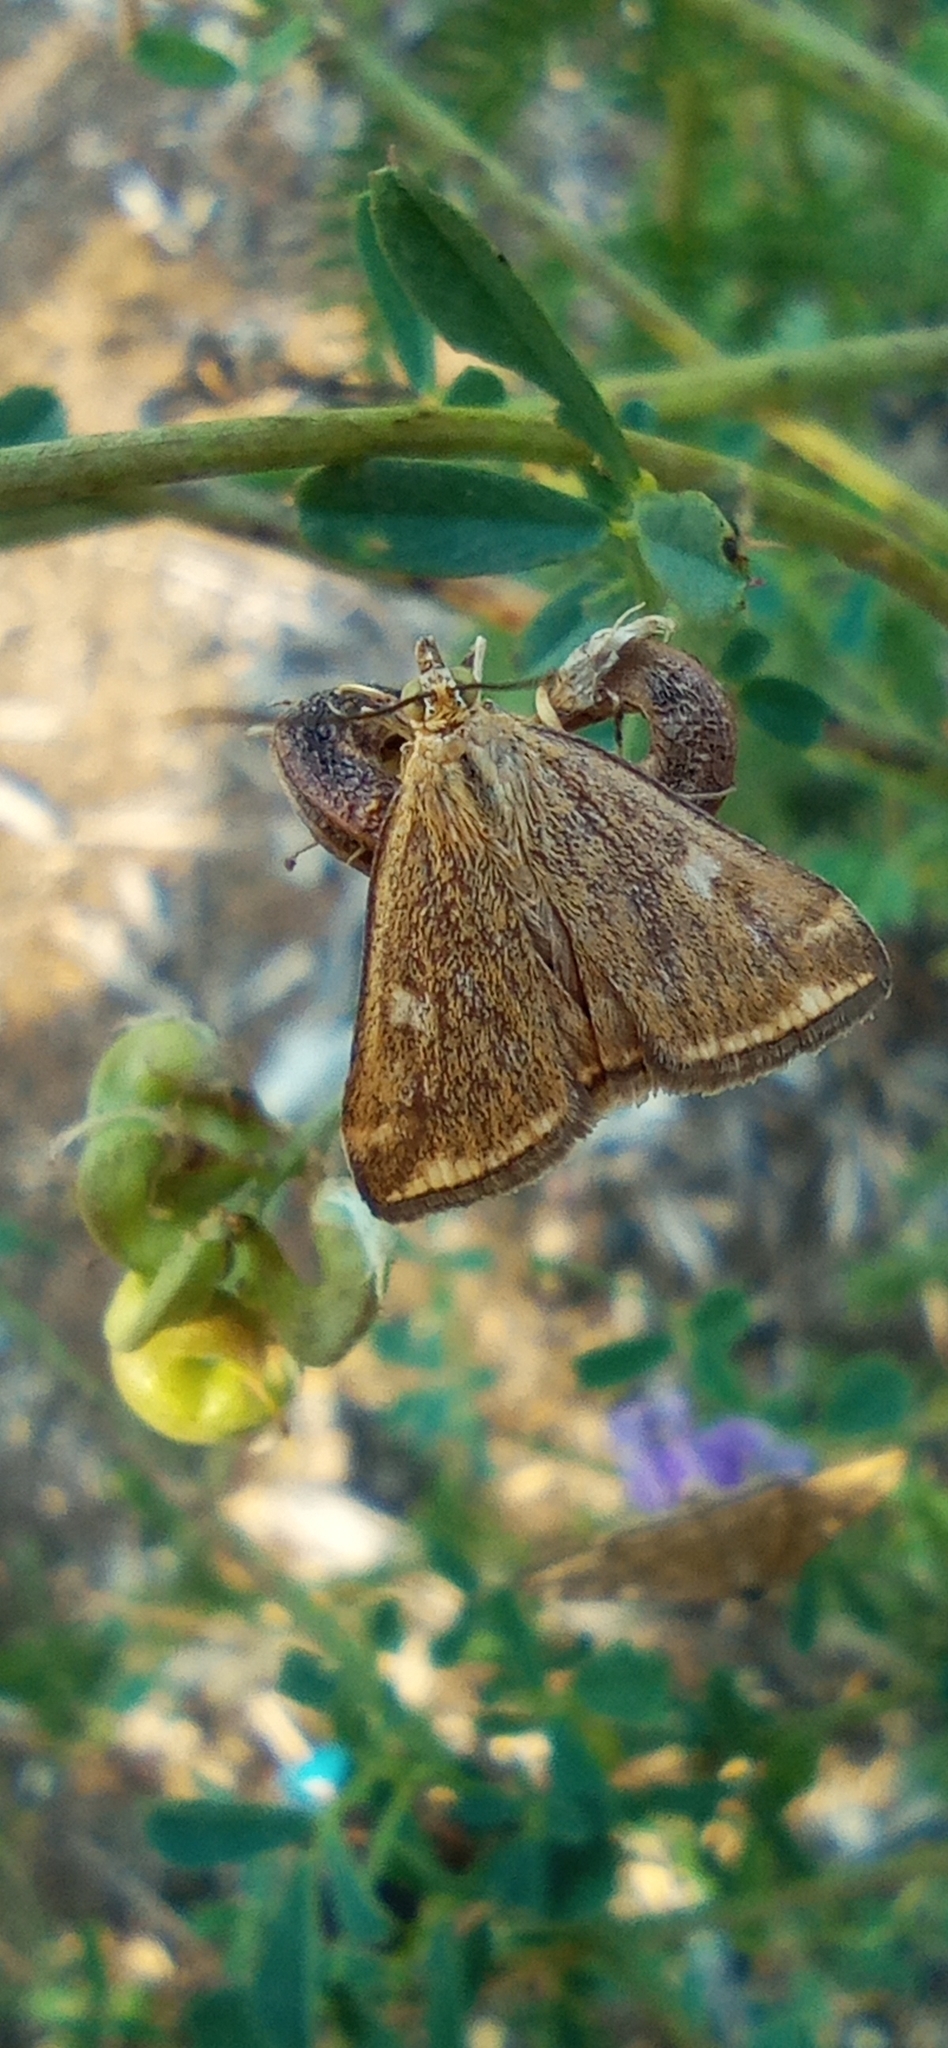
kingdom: Animalia
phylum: Arthropoda
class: Insecta
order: Lepidoptera
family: Crambidae
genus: Loxostege
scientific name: Loxostege sticticalis
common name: Crambid moth
